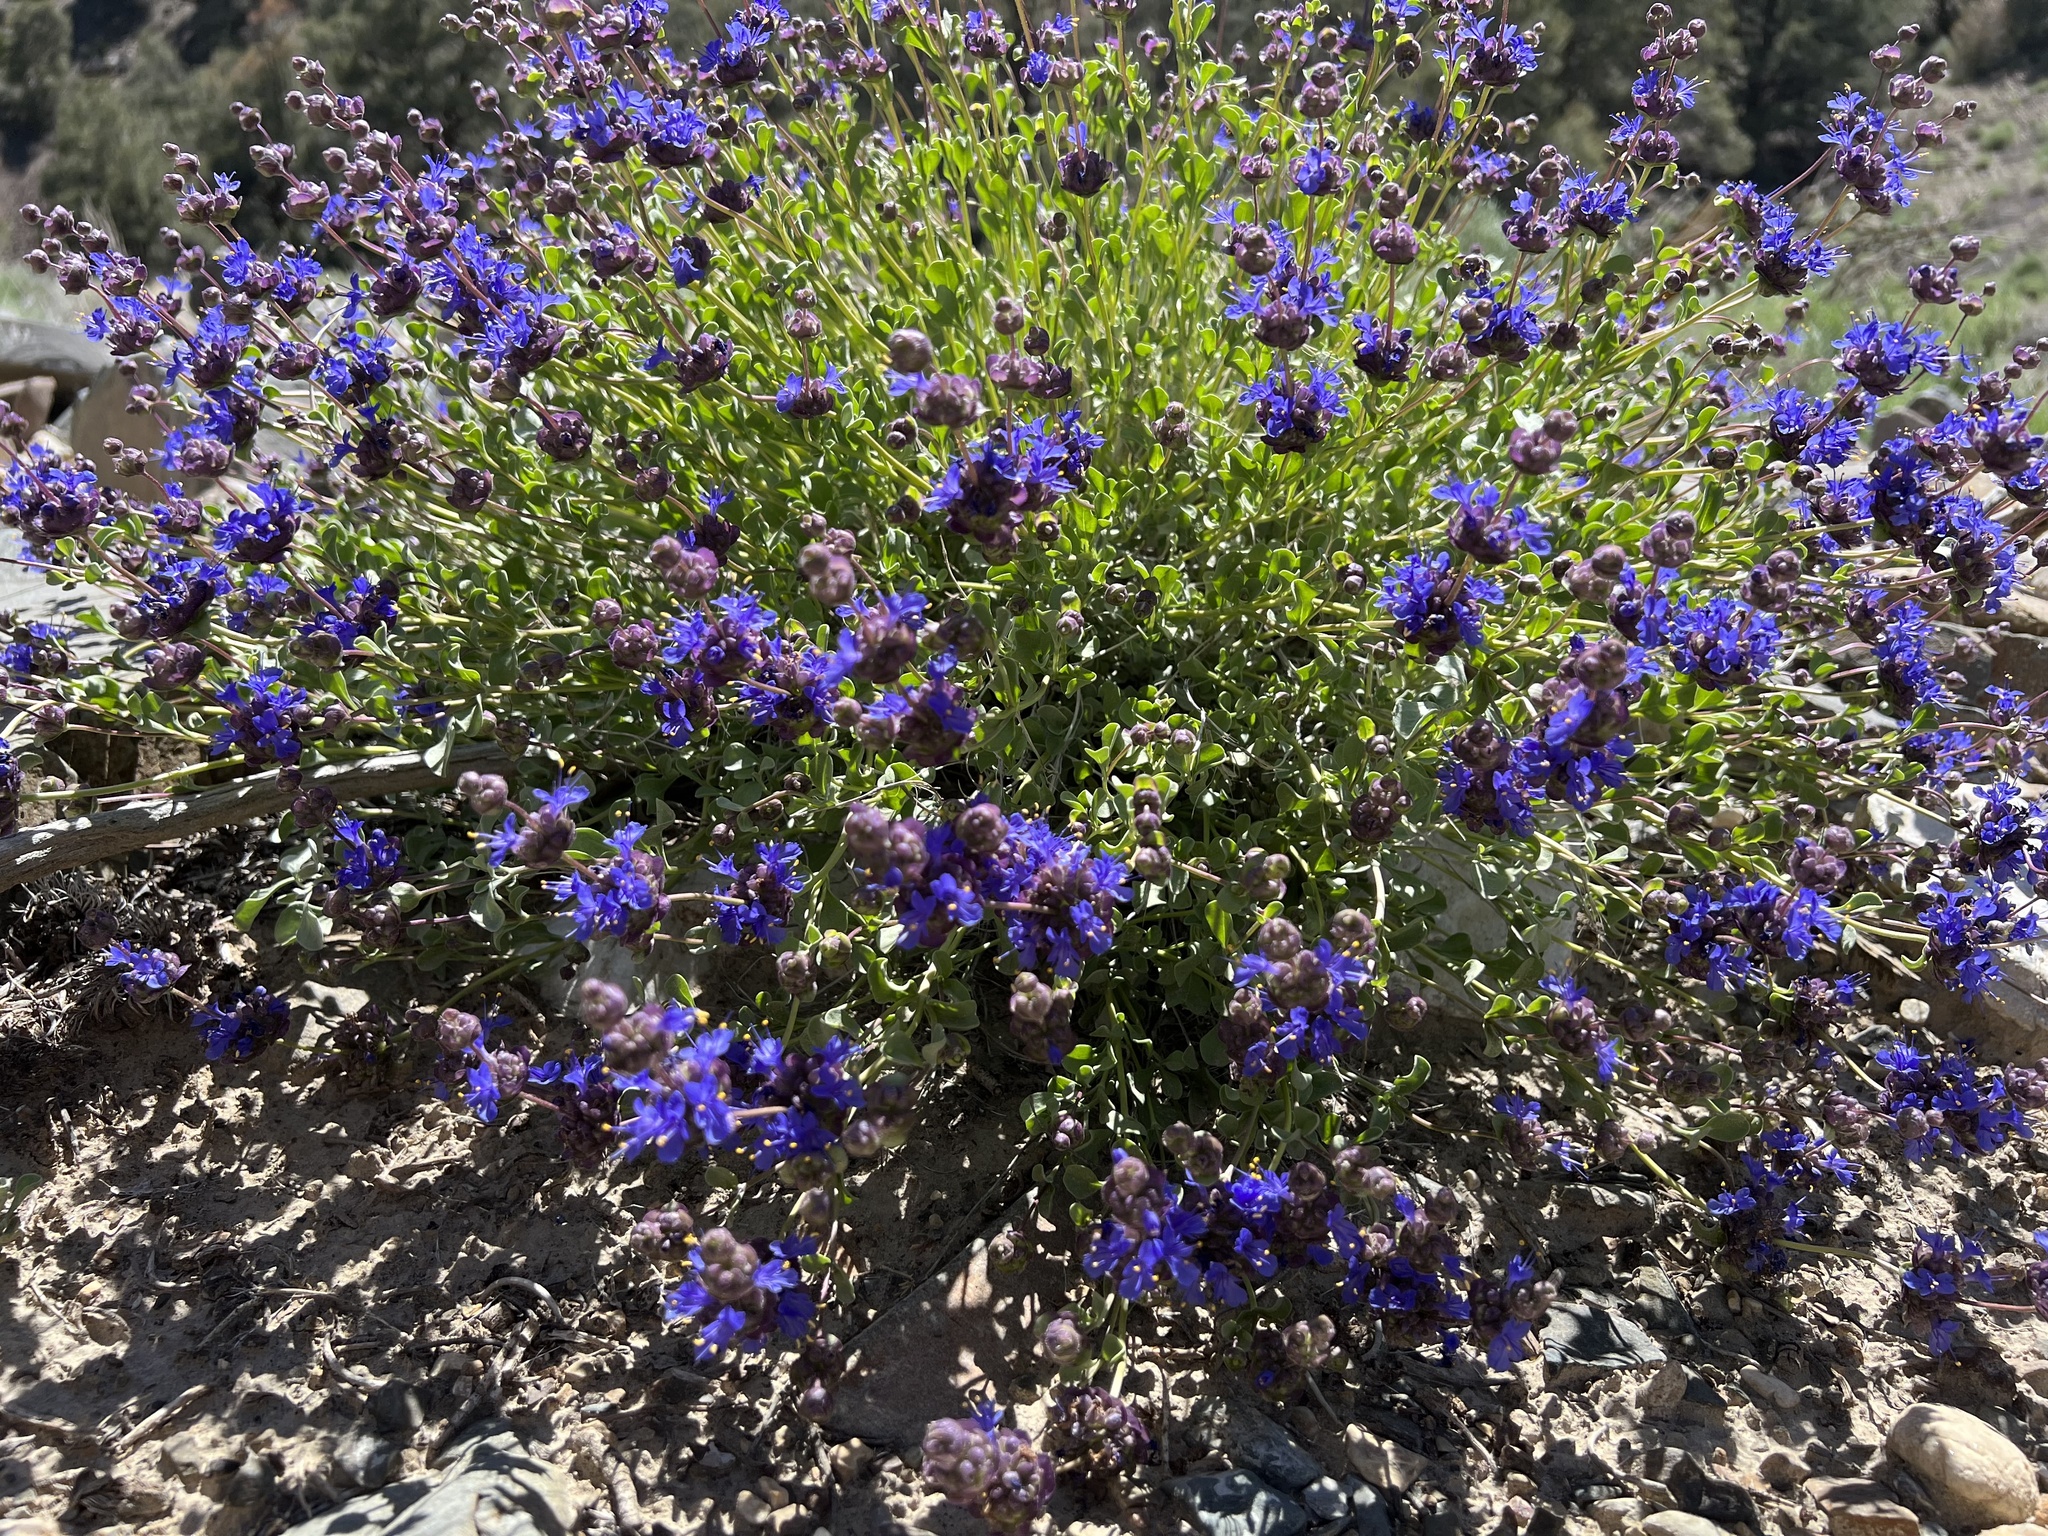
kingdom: Plantae
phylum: Tracheophyta
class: Magnoliopsida
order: Lamiales
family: Lamiaceae
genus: Salvia
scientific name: Salvia dorrii
